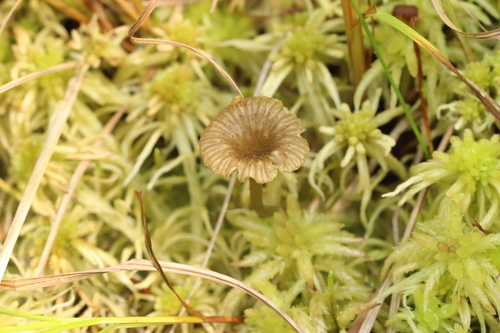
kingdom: Fungi
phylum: Basidiomycota
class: Agaricomycetes
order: Agaricales
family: Hygrophoraceae
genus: Lichenomphalia
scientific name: Lichenomphalia umbellifera
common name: Heath navel
